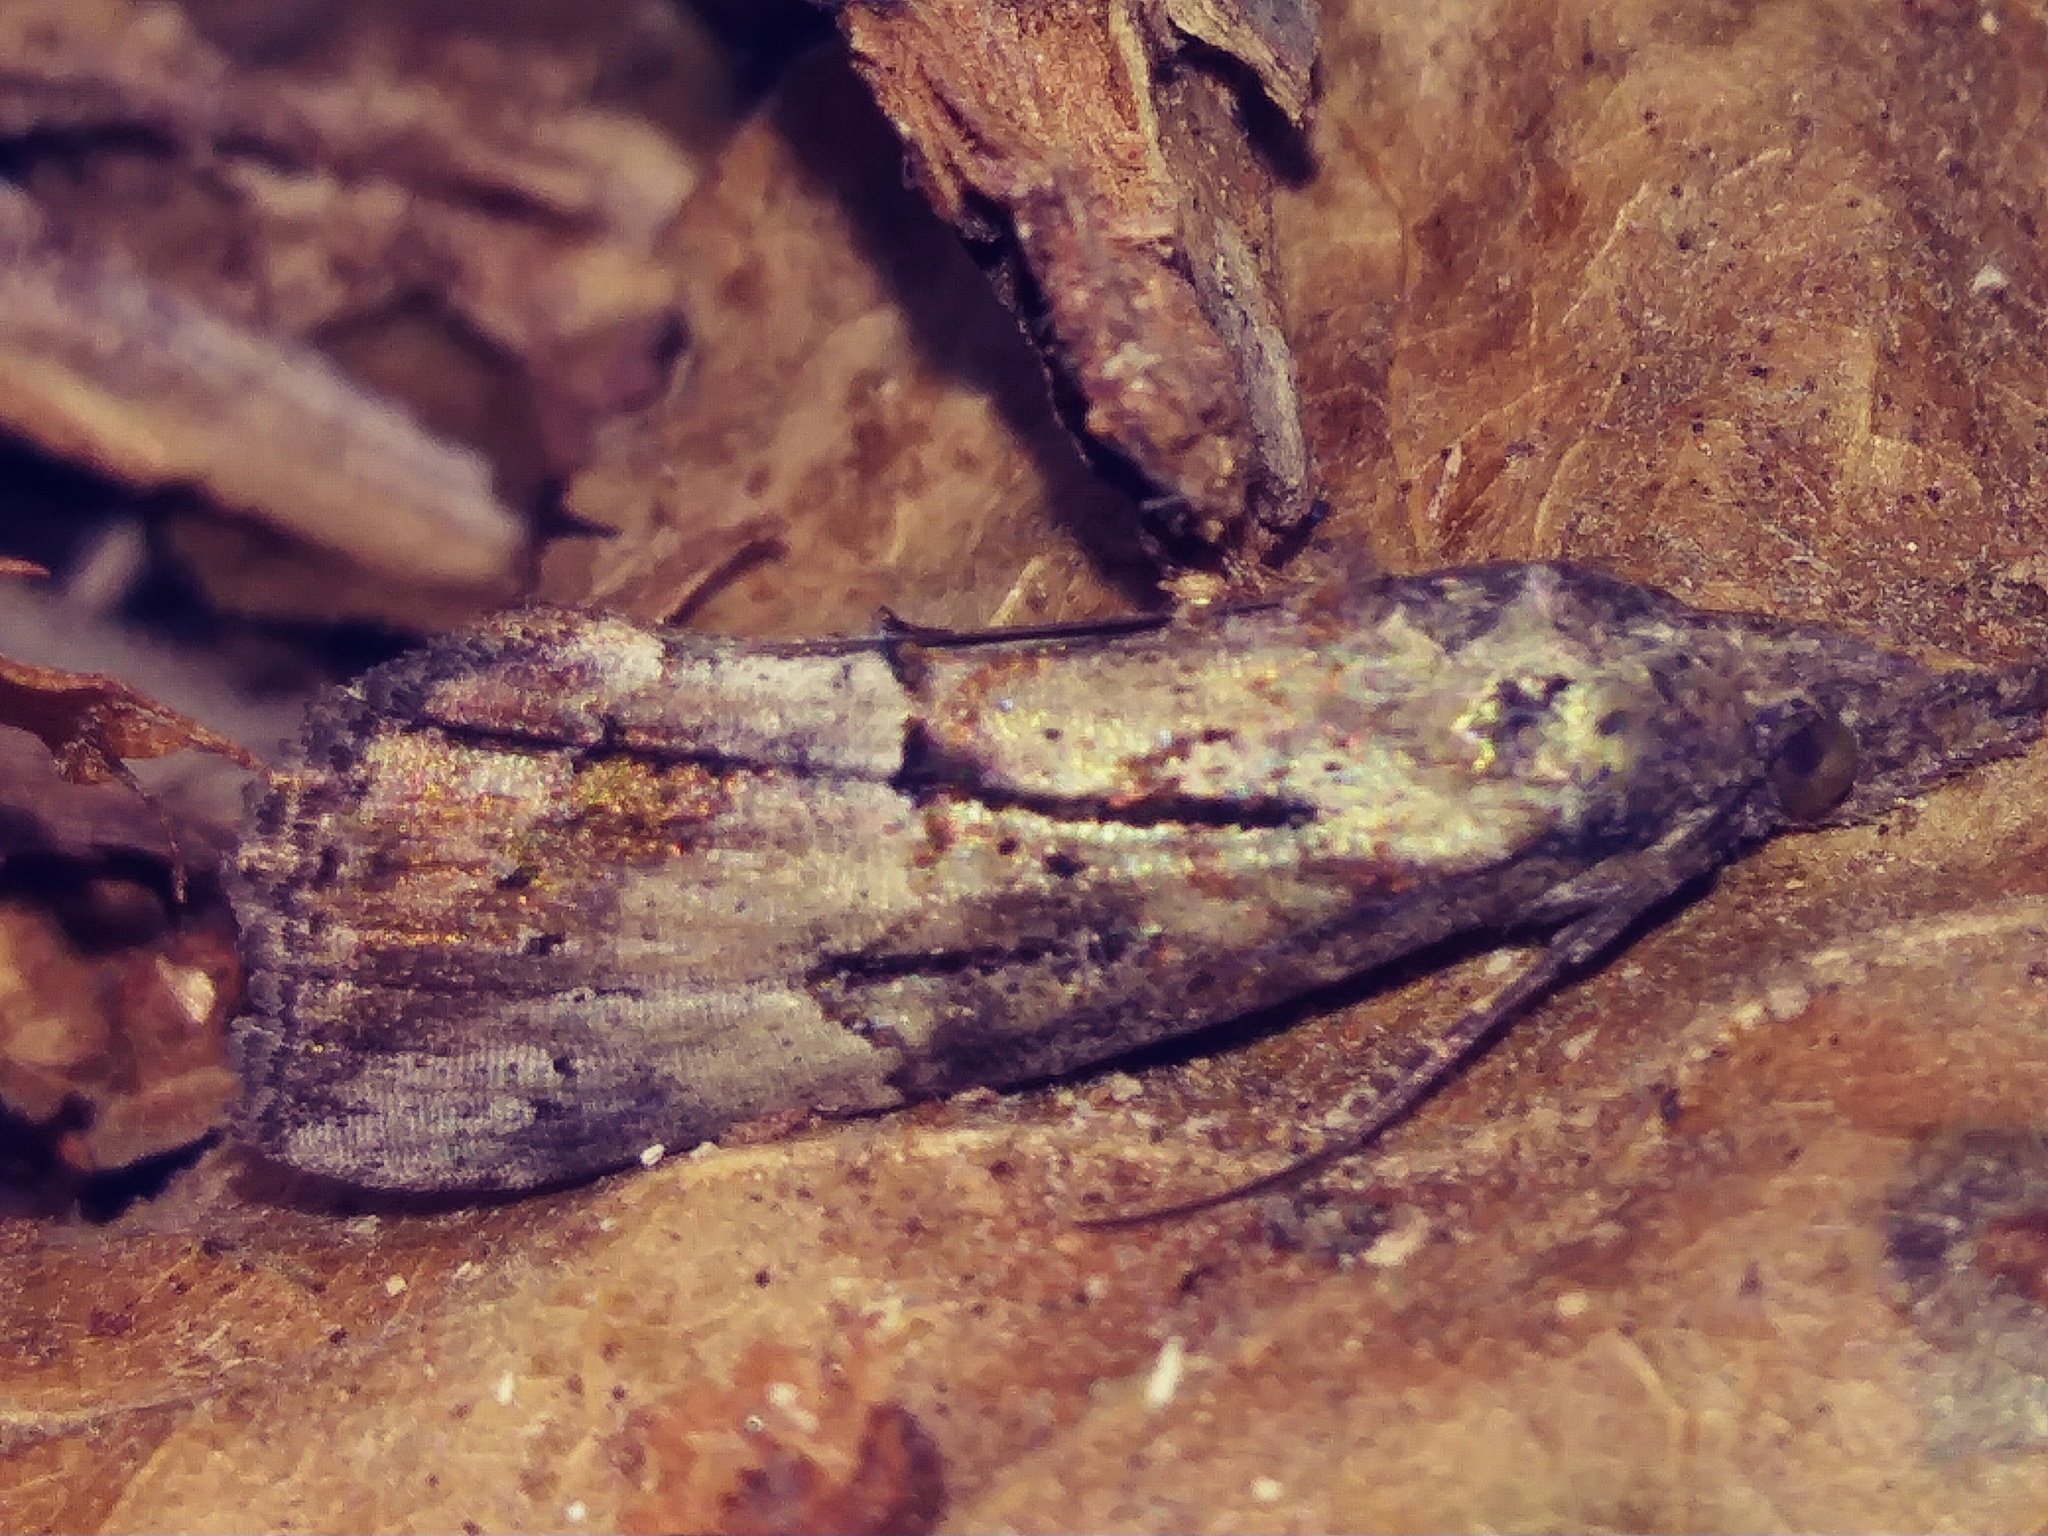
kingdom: Animalia
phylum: Arthropoda
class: Insecta
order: Lepidoptera
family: Erebidae
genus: Hypena
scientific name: Hypena scabra
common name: Green cloverworm
